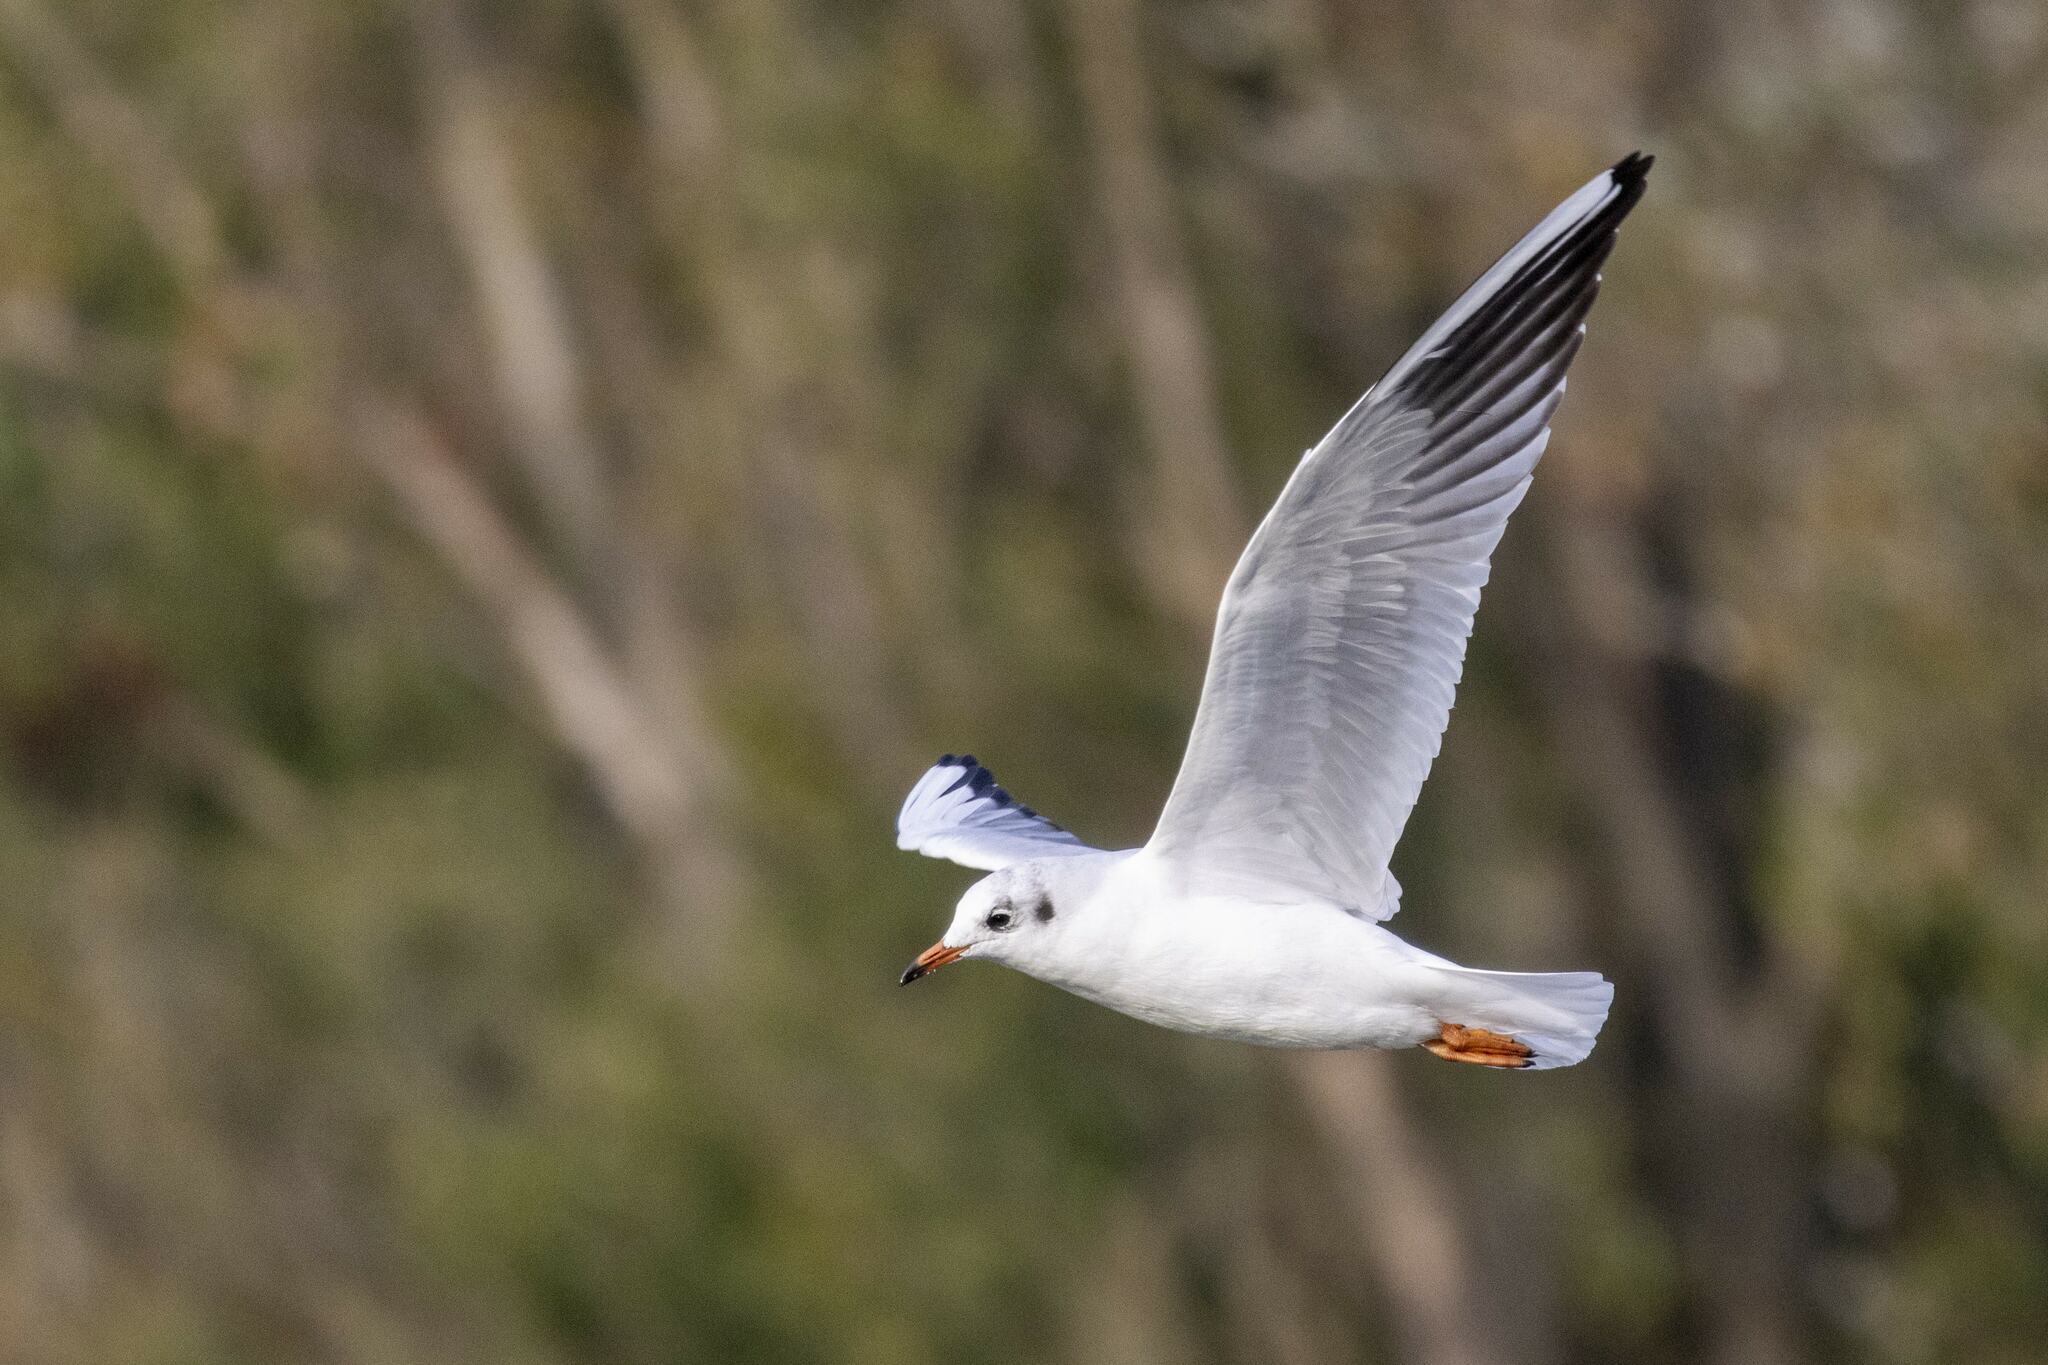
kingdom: Animalia
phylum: Chordata
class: Aves
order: Charadriiformes
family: Laridae
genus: Chroicocephalus
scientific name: Chroicocephalus ridibundus
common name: Black-headed gull
